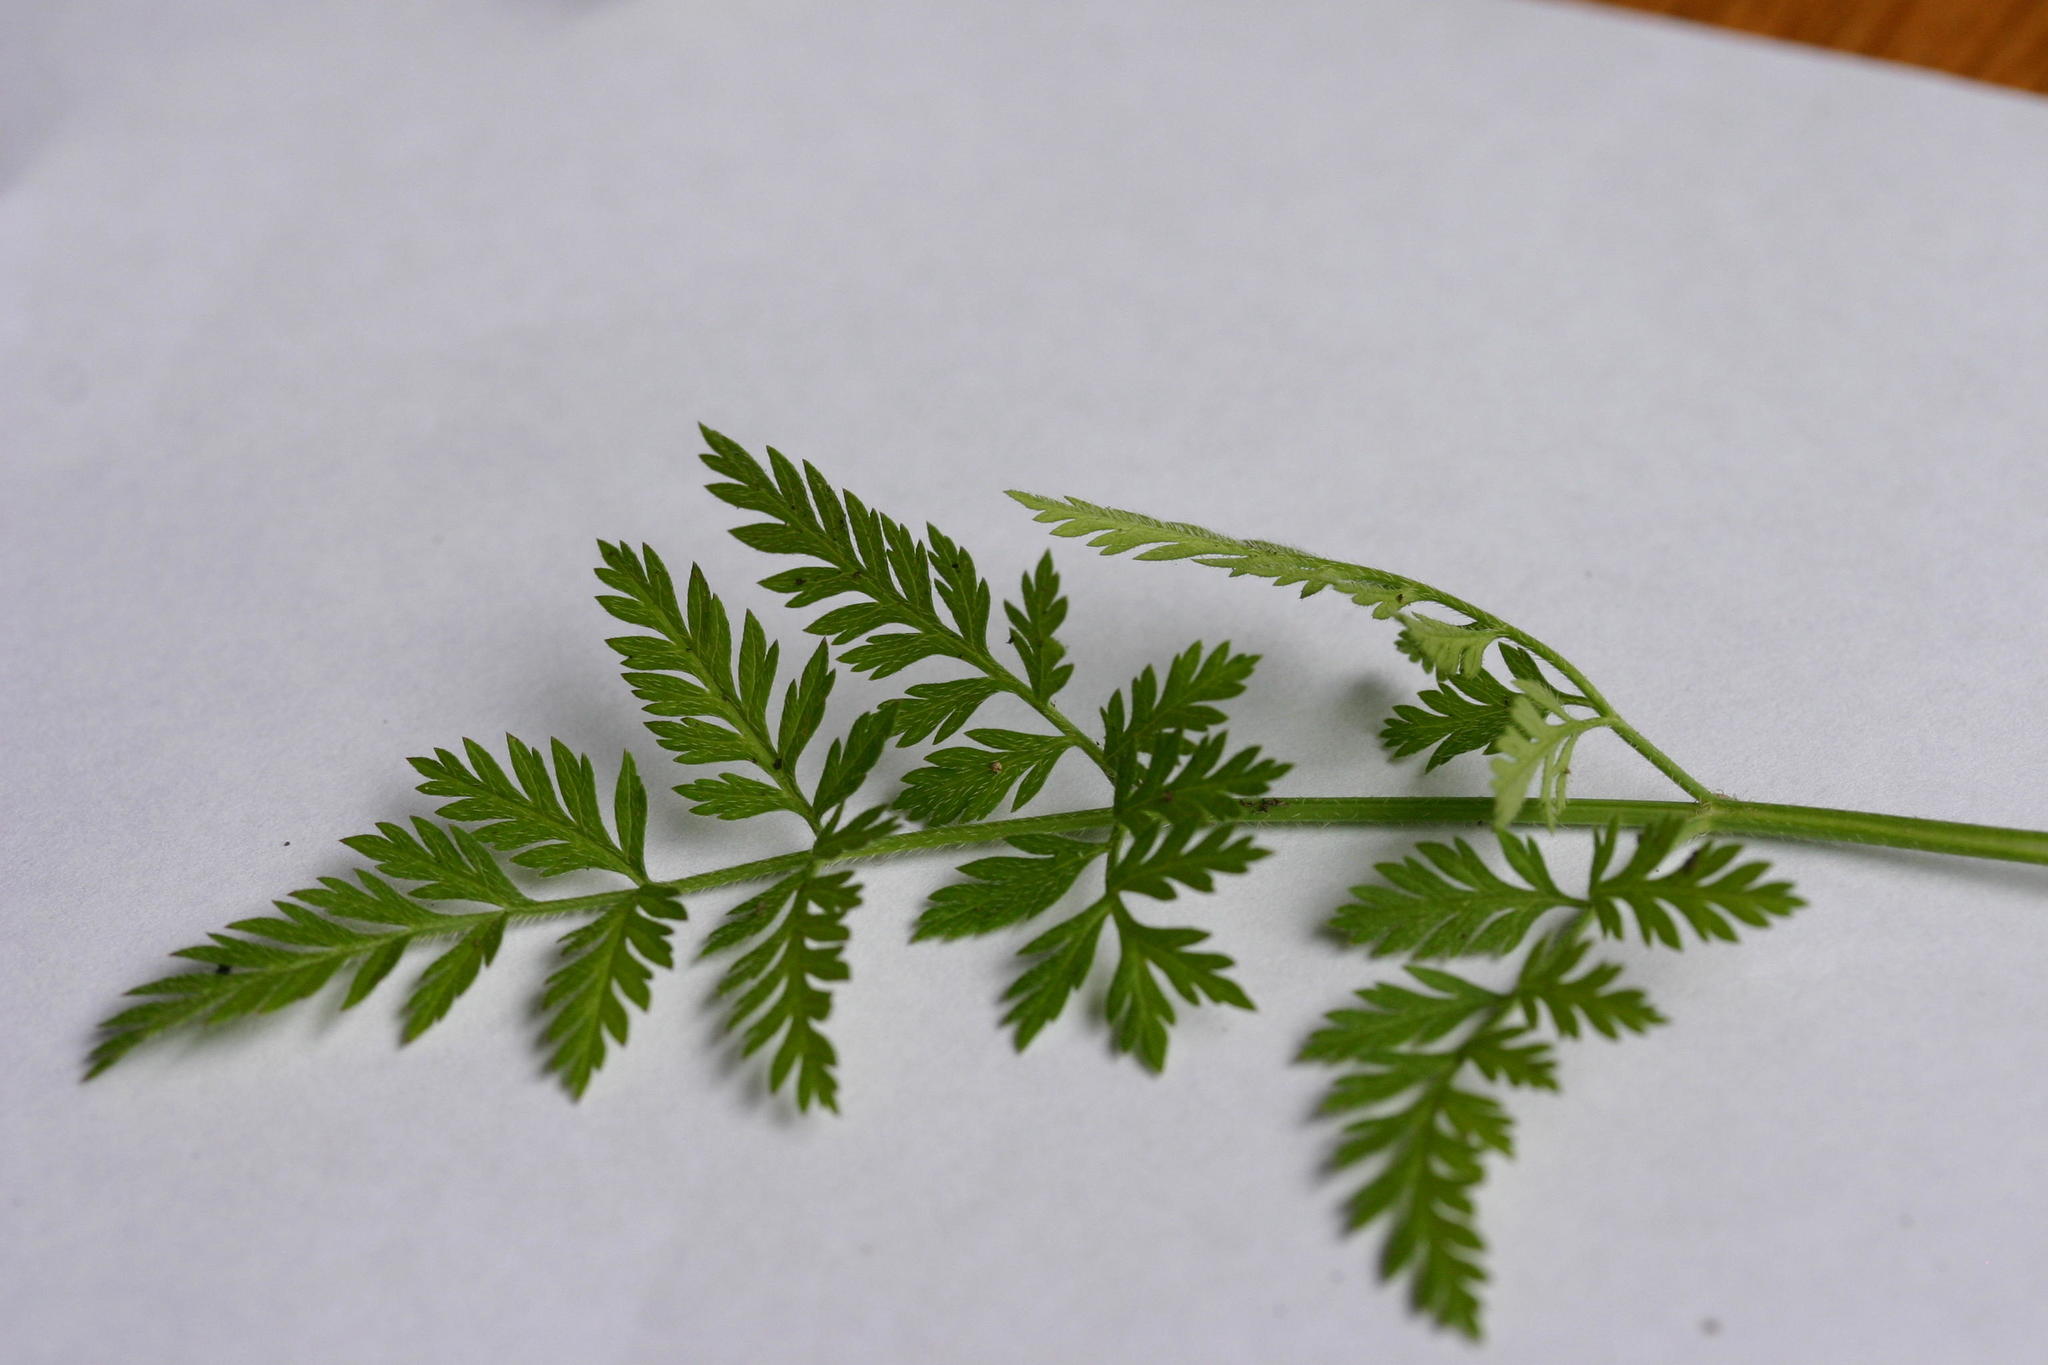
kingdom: Plantae
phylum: Tracheophyta
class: Magnoliopsida
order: Apiales
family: Apiaceae
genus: Torilis
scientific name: Torilis arvensis
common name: Spreading hedge-parsley
